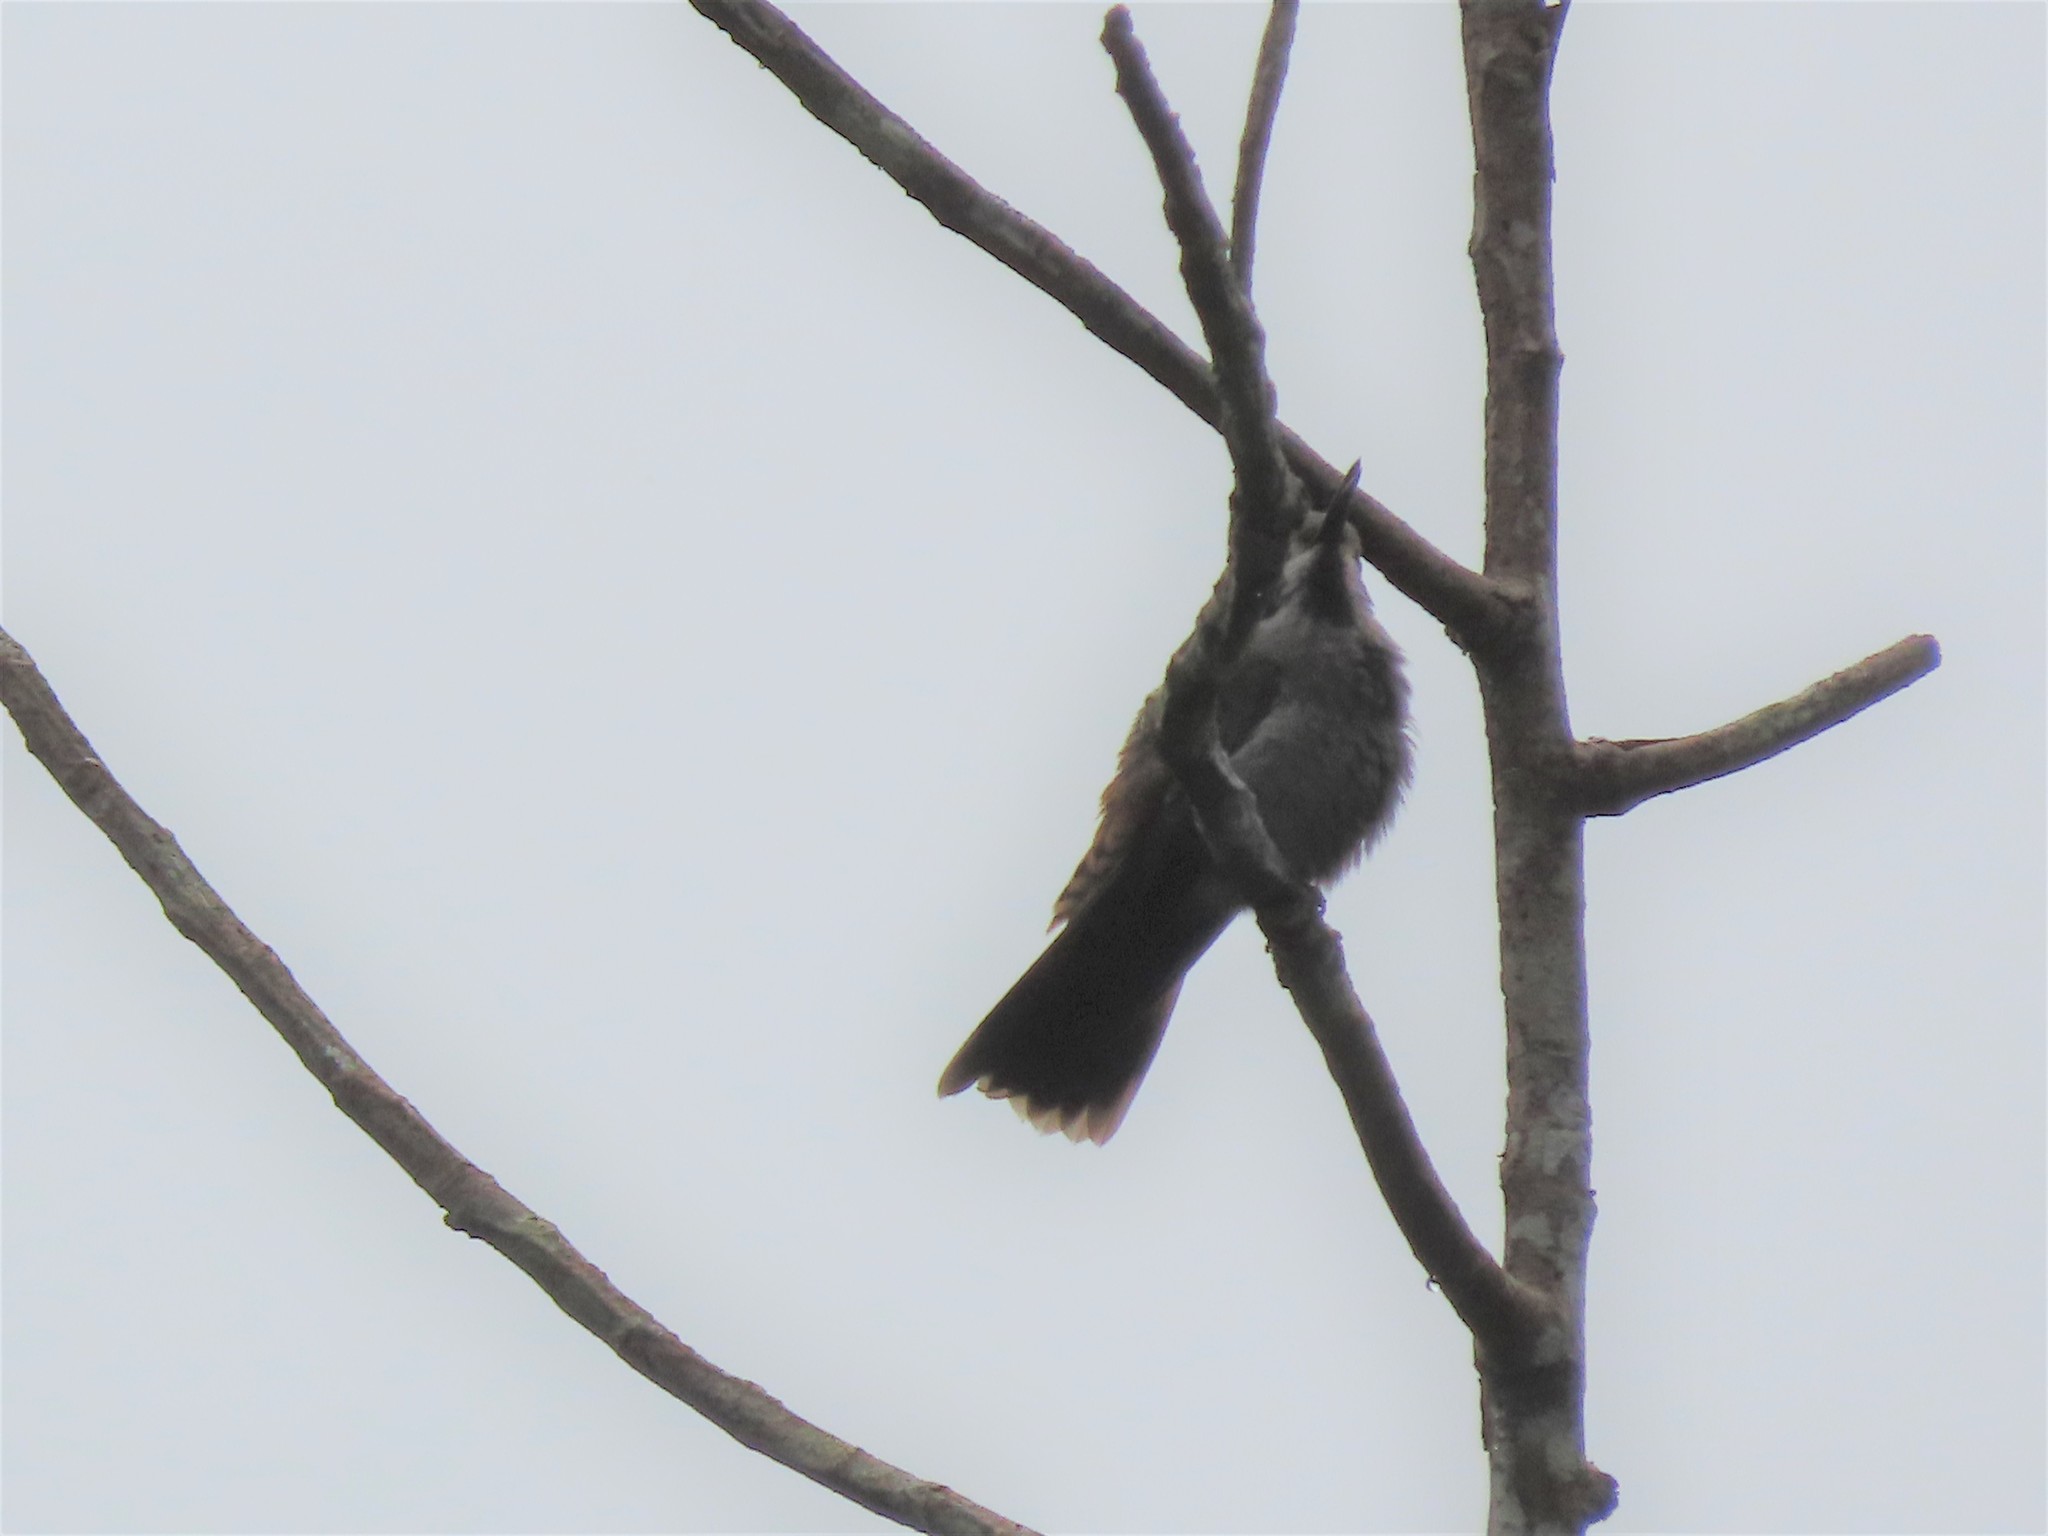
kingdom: Animalia
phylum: Chordata
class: Aves
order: Apodiformes
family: Trochilidae
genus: Colibri
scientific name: Colibri delphinae
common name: Brown violetear
